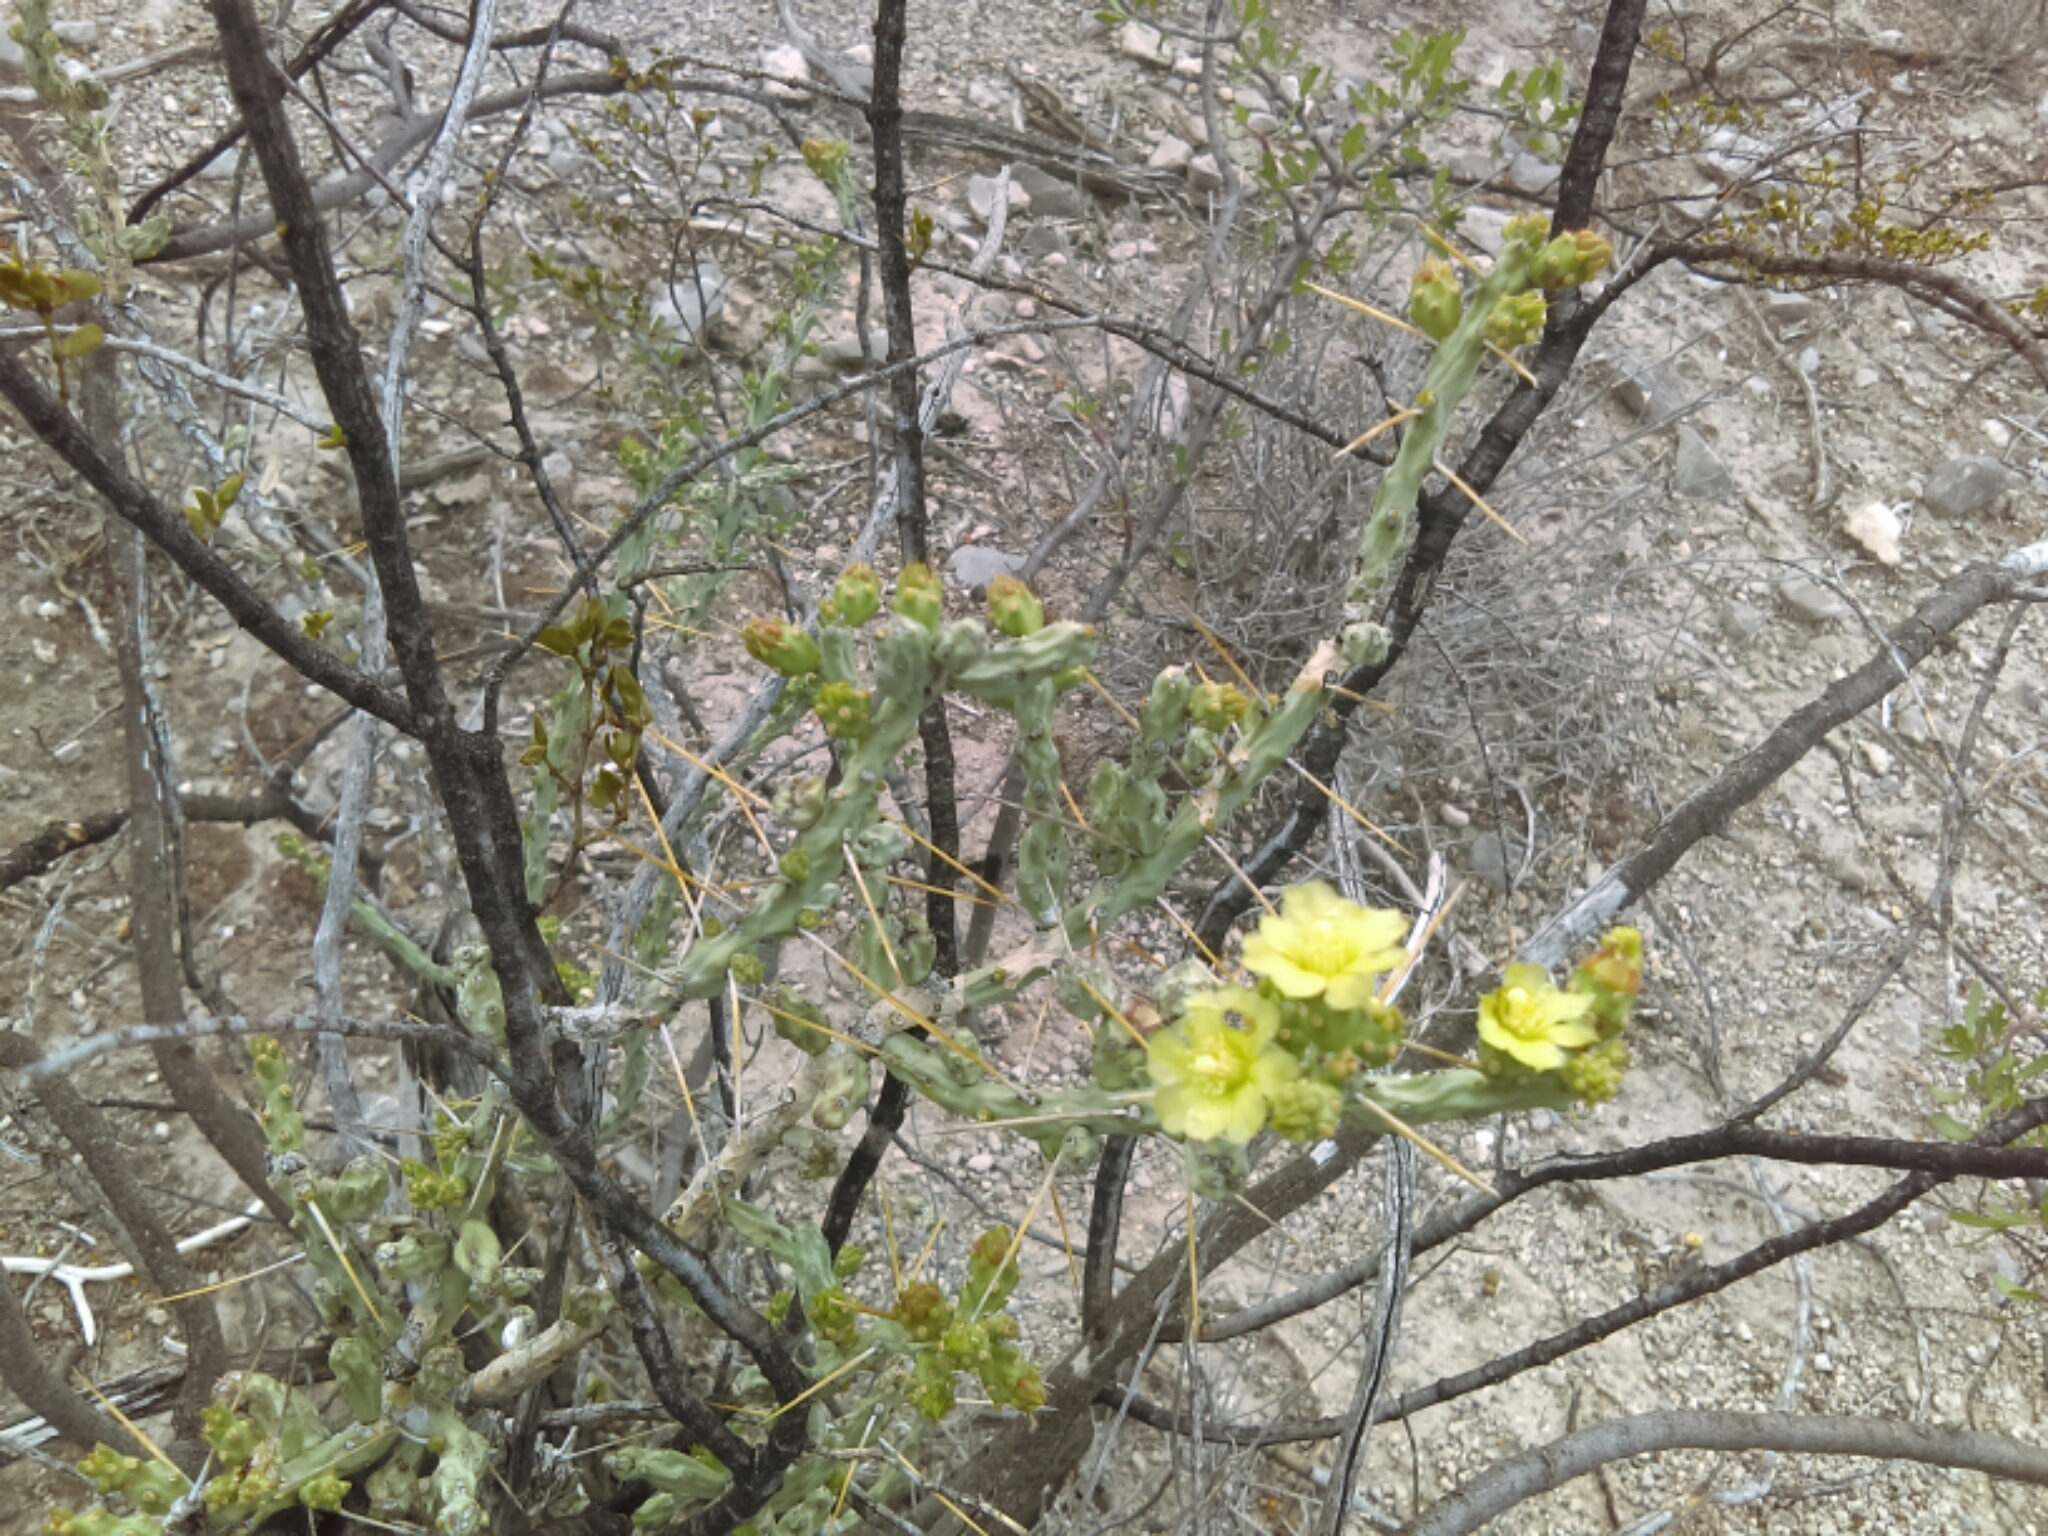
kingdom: Plantae
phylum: Tracheophyta
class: Magnoliopsida
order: Caryophyllales
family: Cactaceae
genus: Cylindropuntia
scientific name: Cylindropuntia leptocaulis
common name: Christmas cactus
